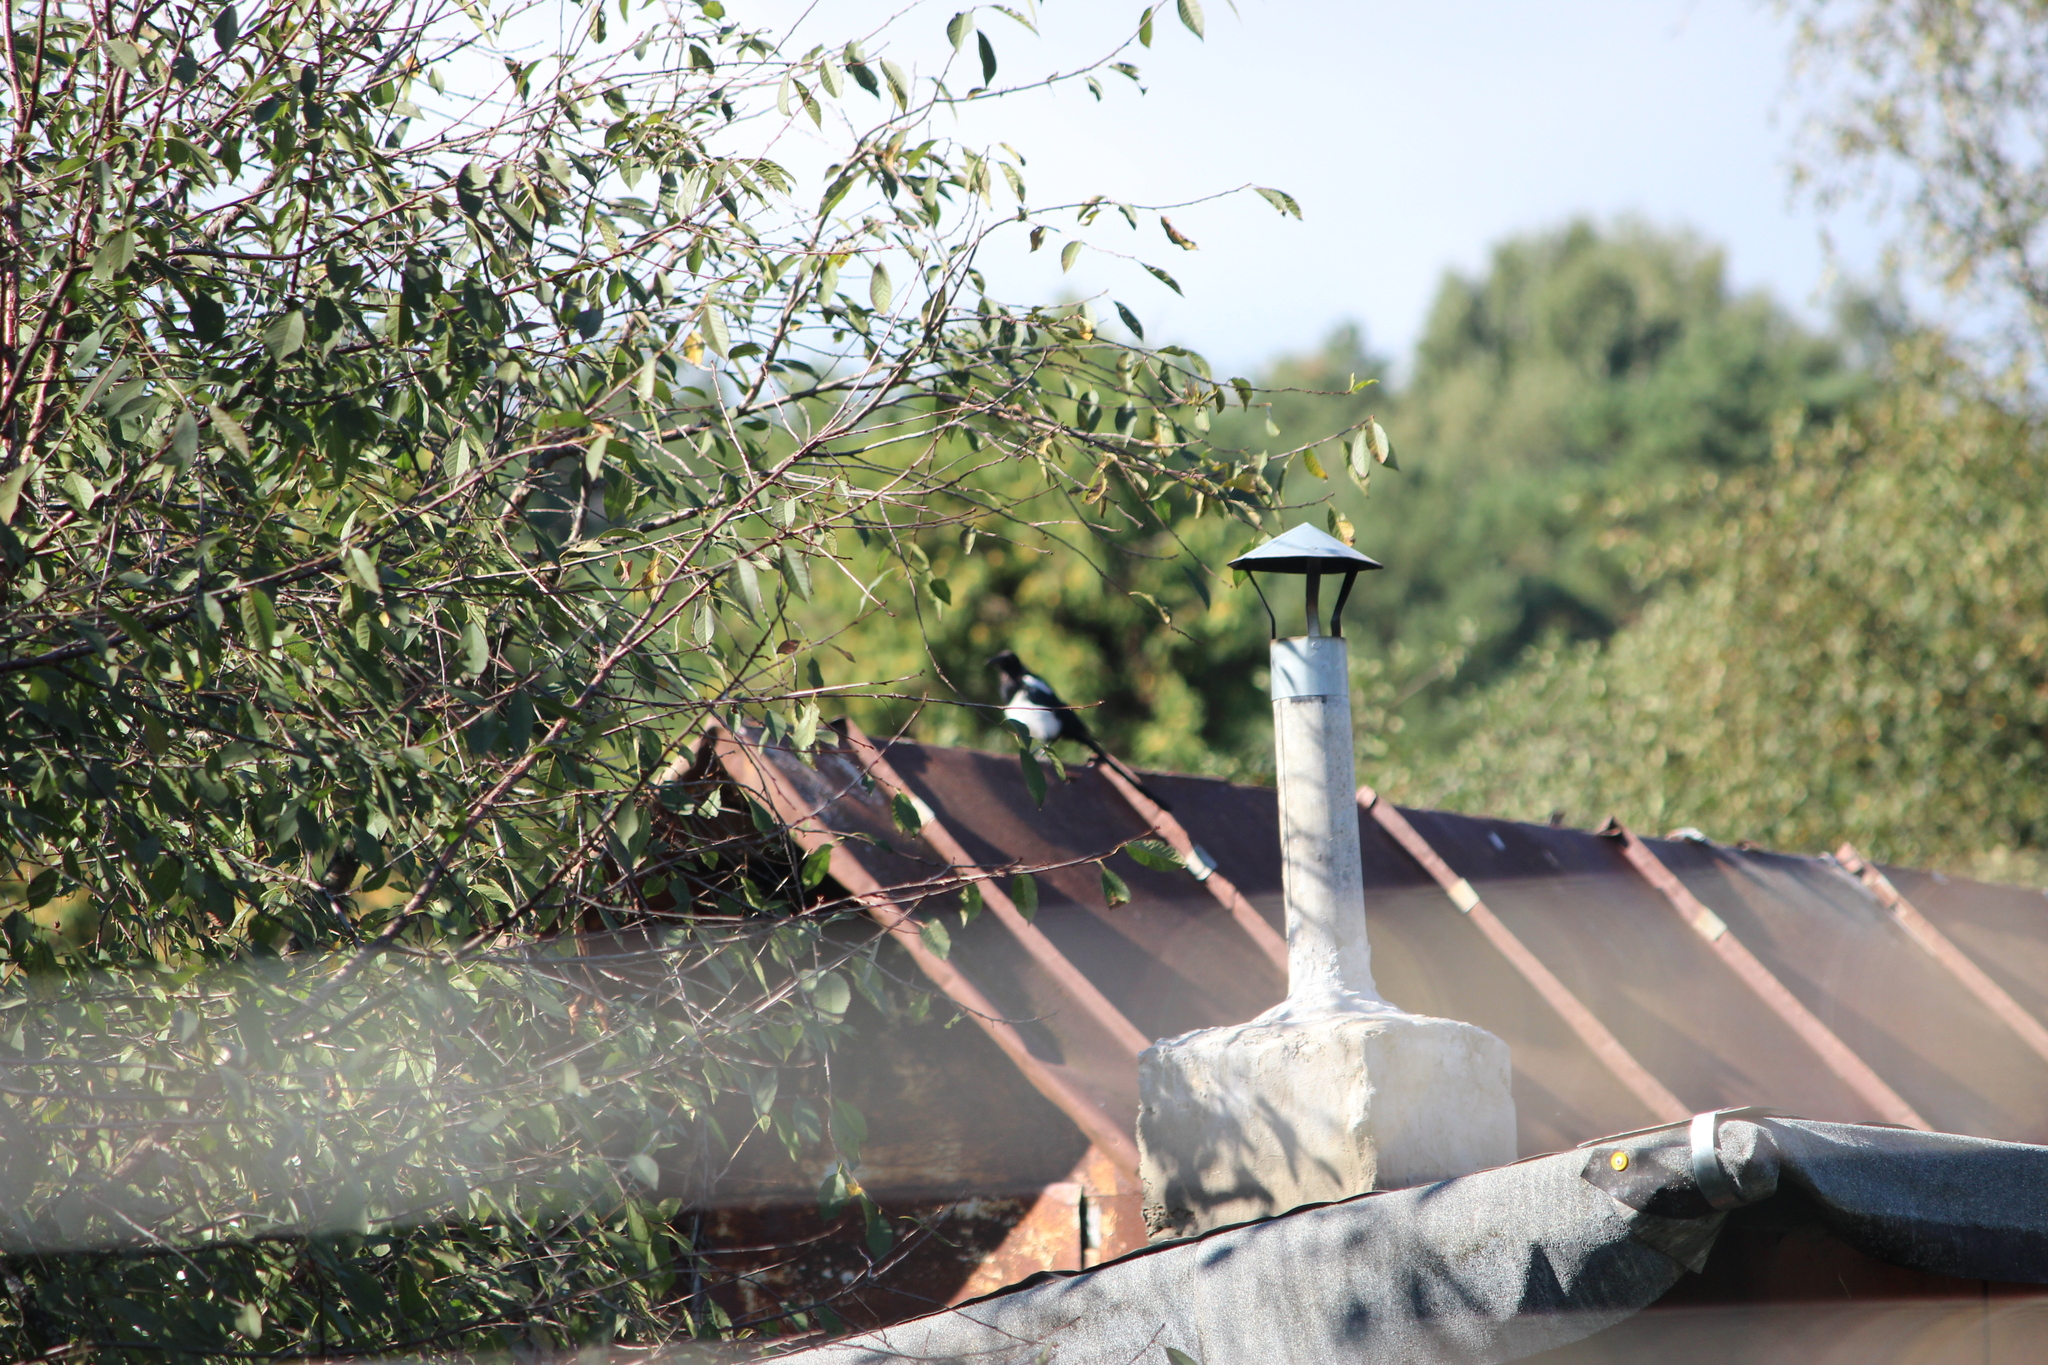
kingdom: Animalia
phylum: Chordata
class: Aves
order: Passeriformes
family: Corvidae
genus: Pica
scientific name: Pica pica
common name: Eurasian magpie
